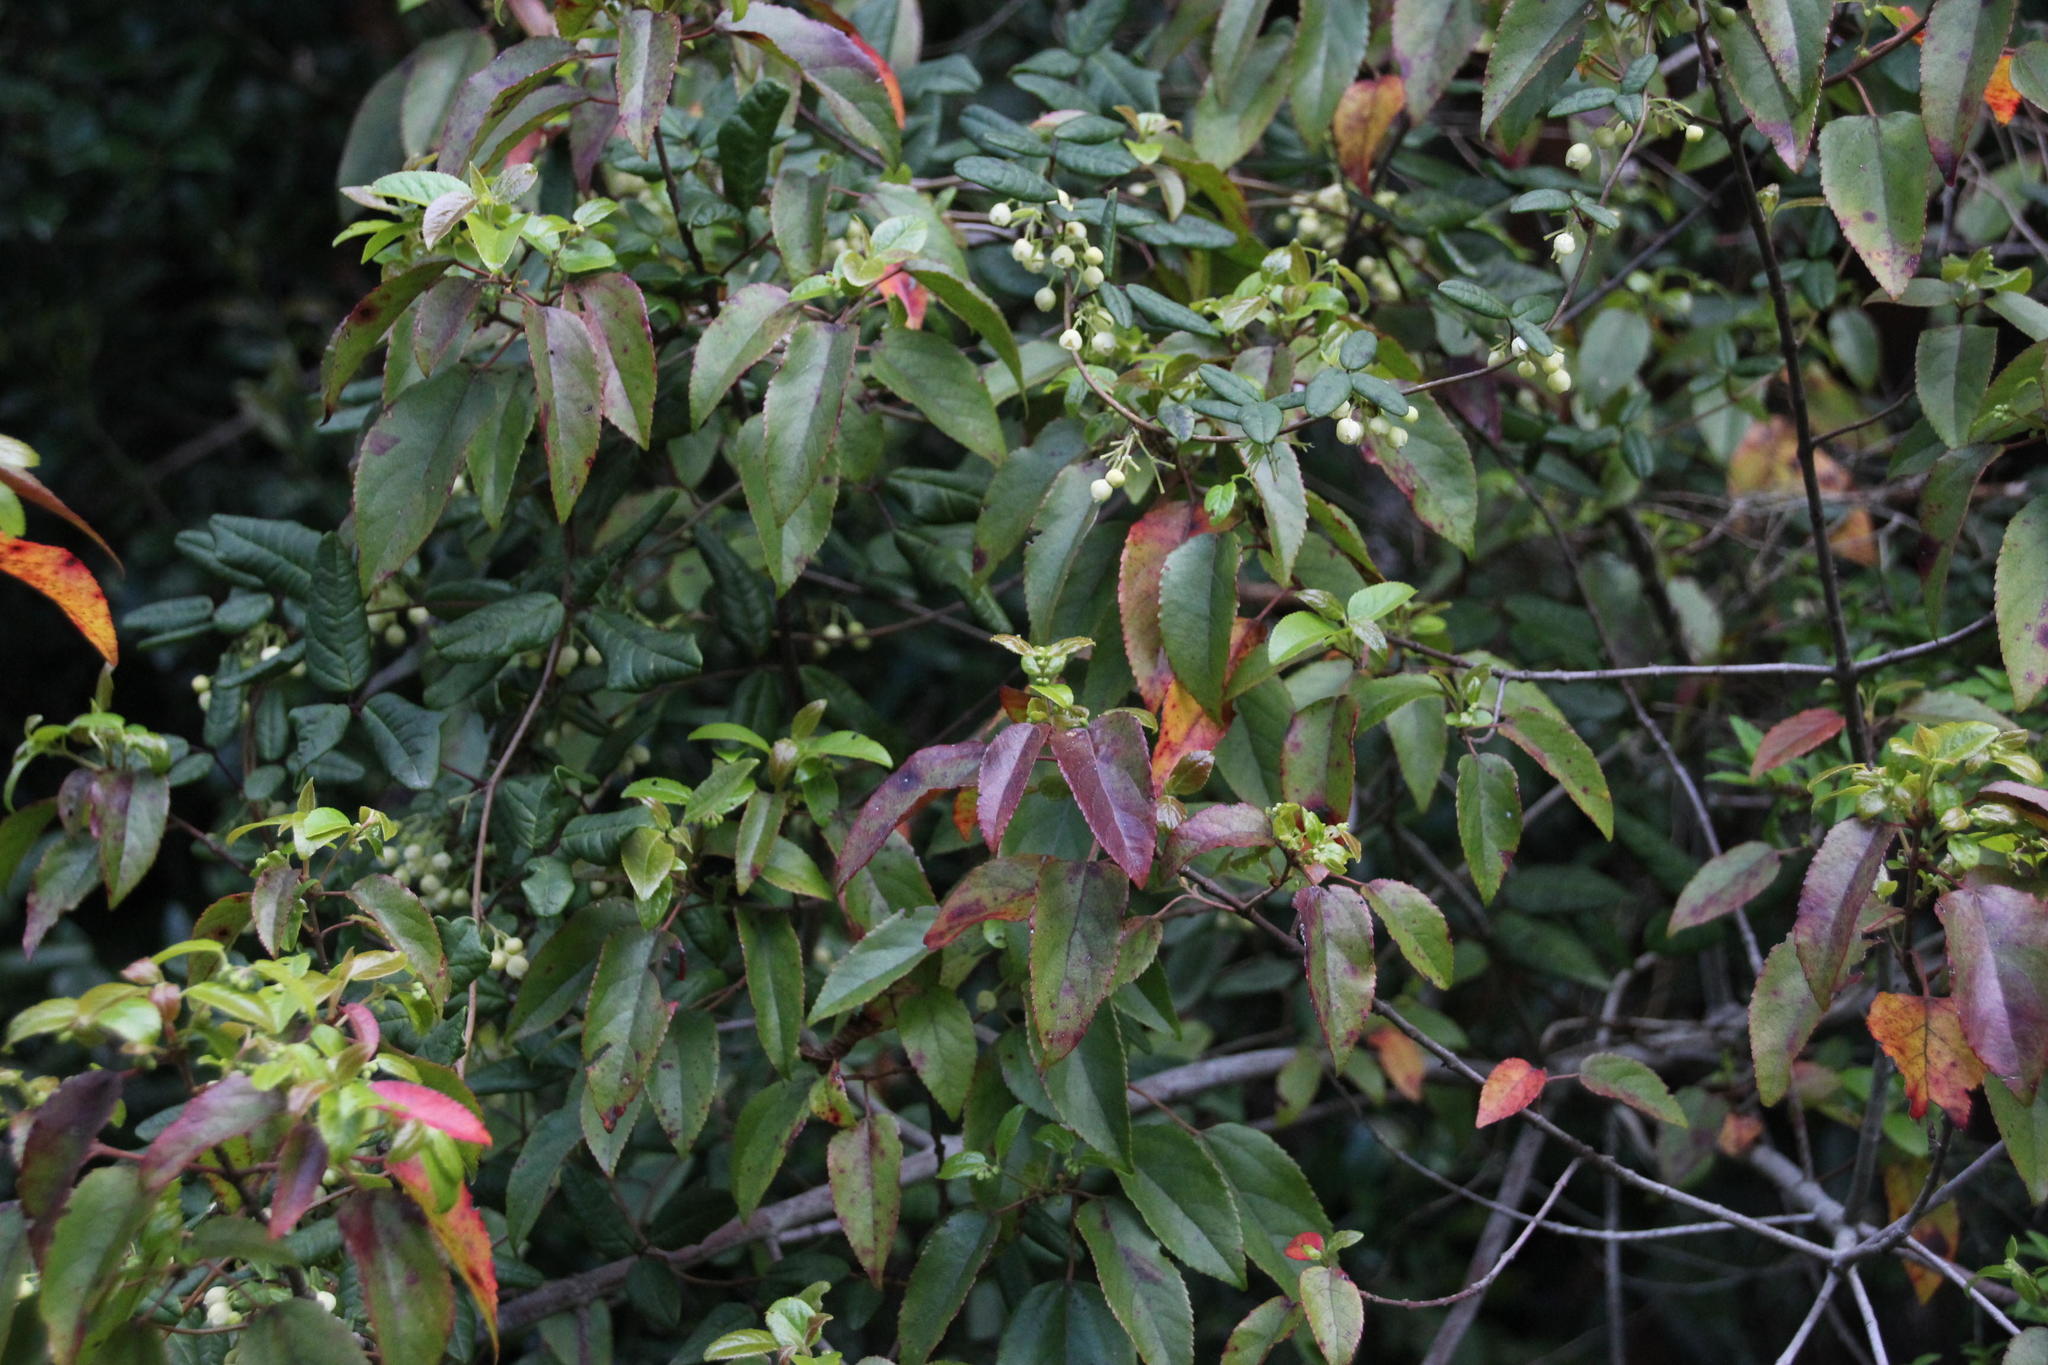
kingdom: Plantae
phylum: Tracheophyta
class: Magnoliopsida
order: Oxalidales
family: Elaeocarpaceae
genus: Aristotelia
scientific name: Aristotelia chilensis
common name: Maquei
